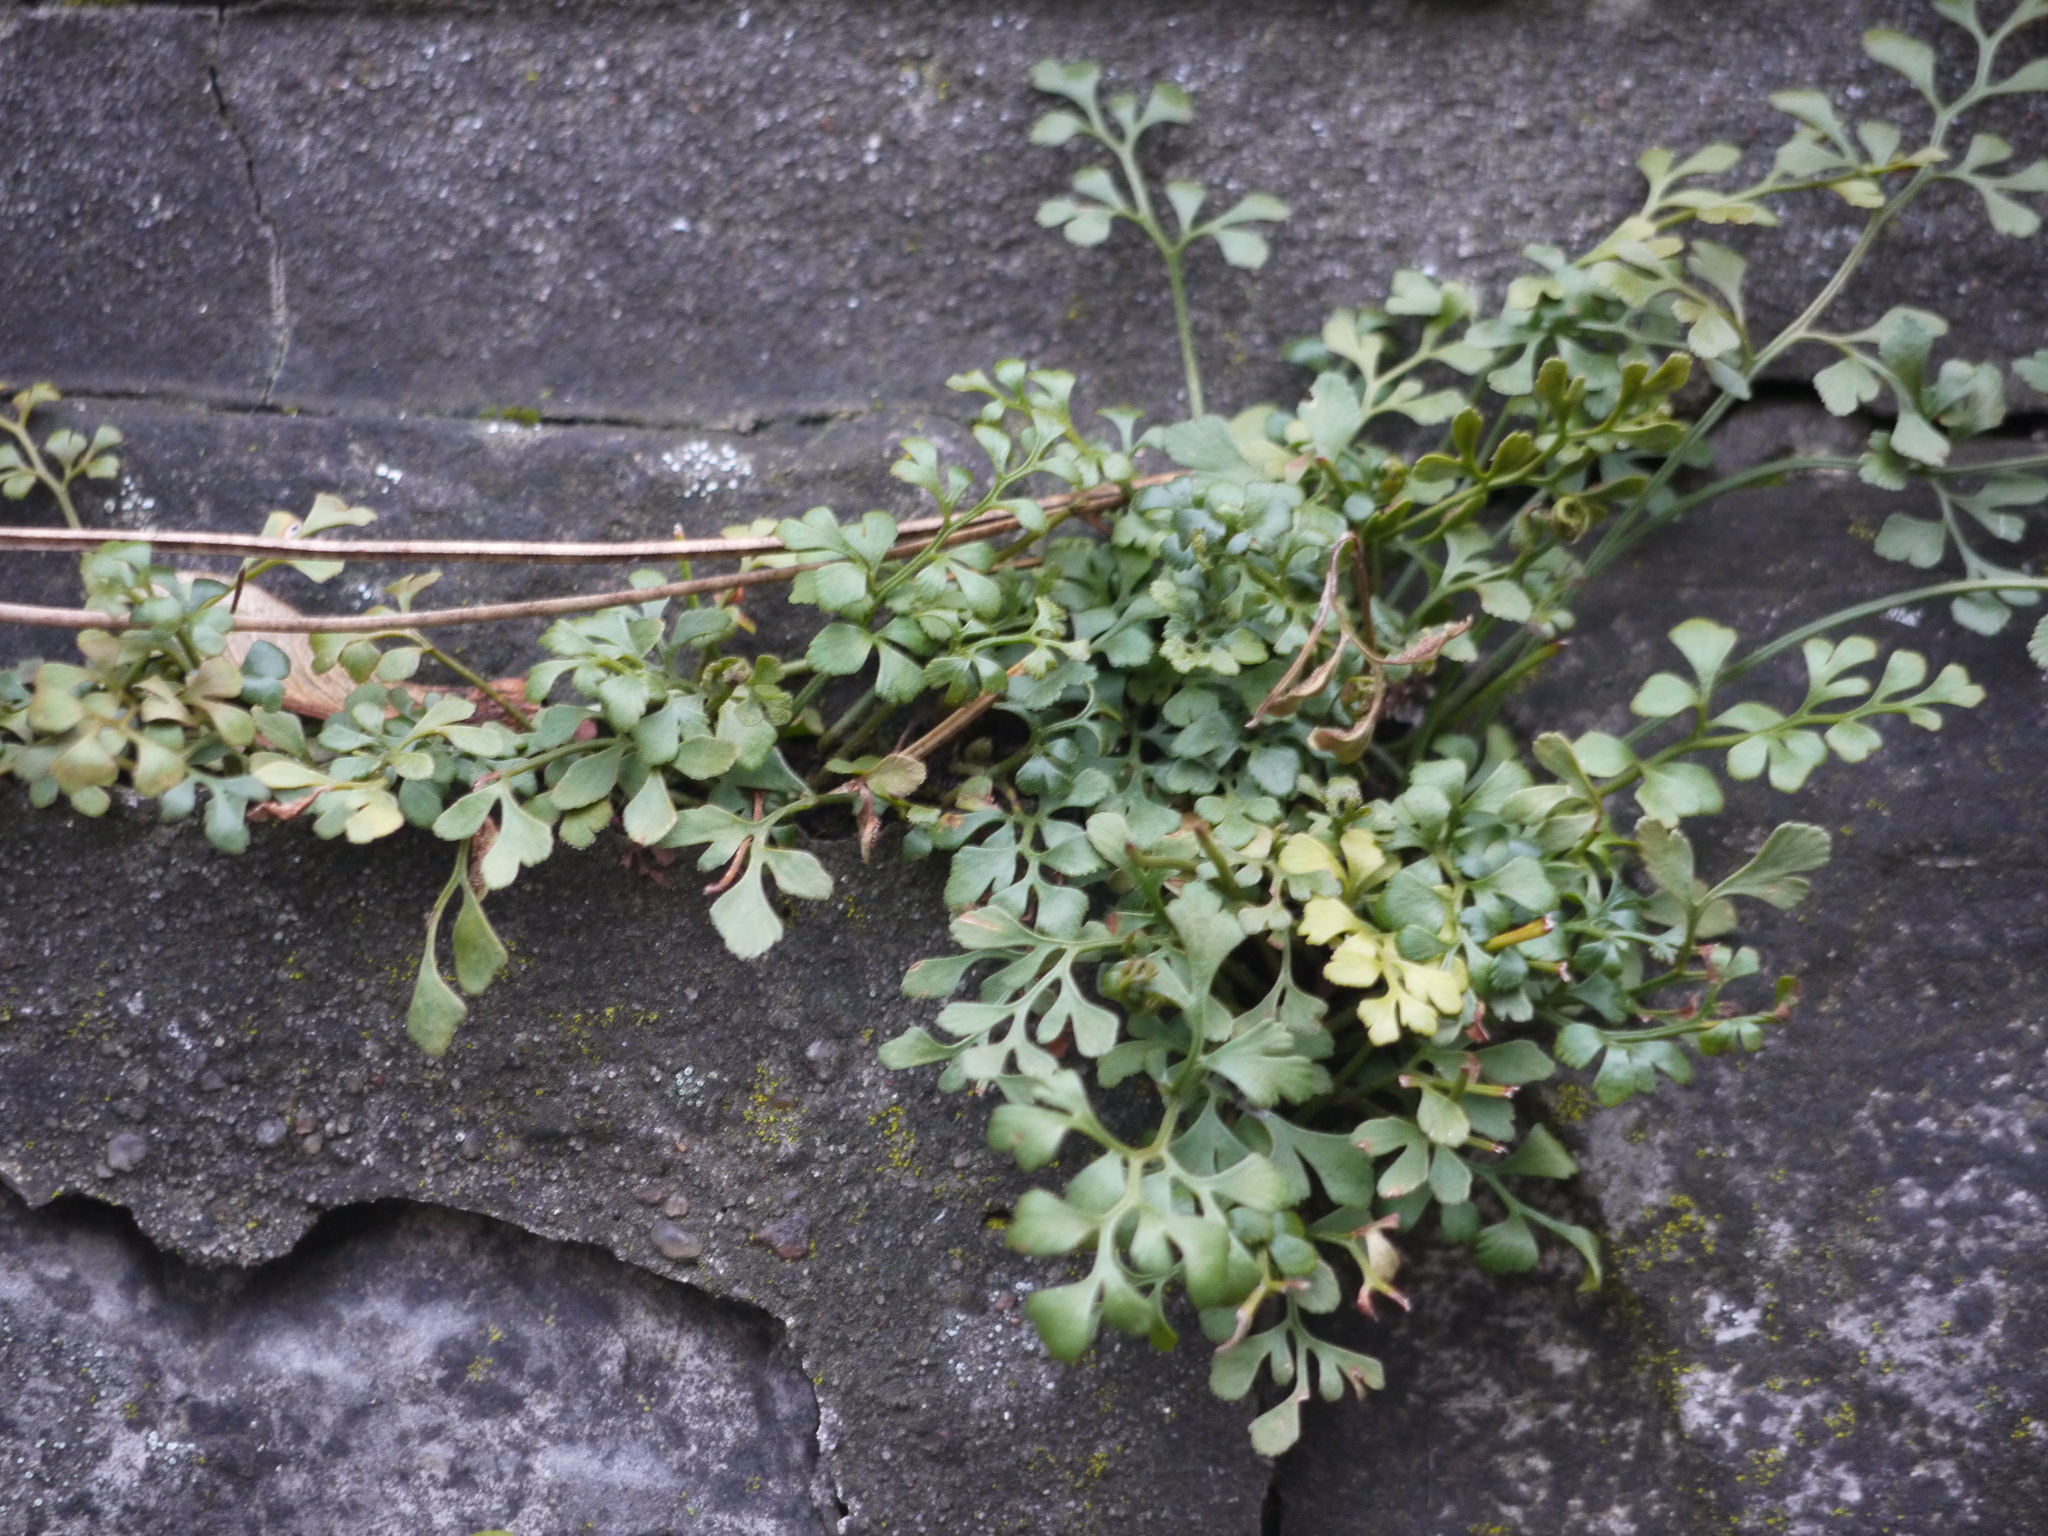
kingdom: Plantae
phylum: Tracheophyta
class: Polypodiopsida
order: Polypodiales
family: Aspleniaceae
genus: Asplenium
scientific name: Asplenium ruta-muraria
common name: Wall-rue
